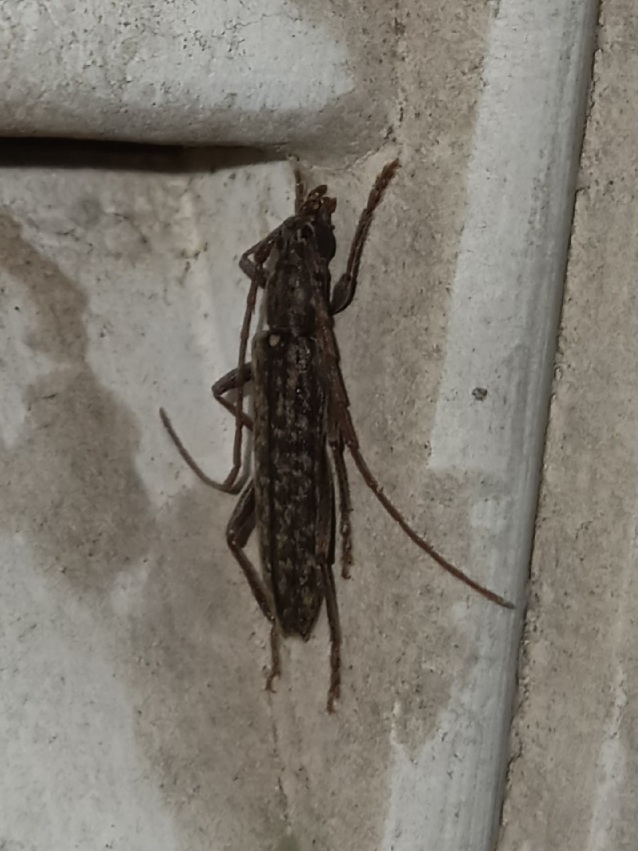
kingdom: Animalia
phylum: Arthropoda
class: Insecta
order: Coleoptera
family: Cerambycidae
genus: Anelaphus
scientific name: Anelaphus villosus
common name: Twig pruner
